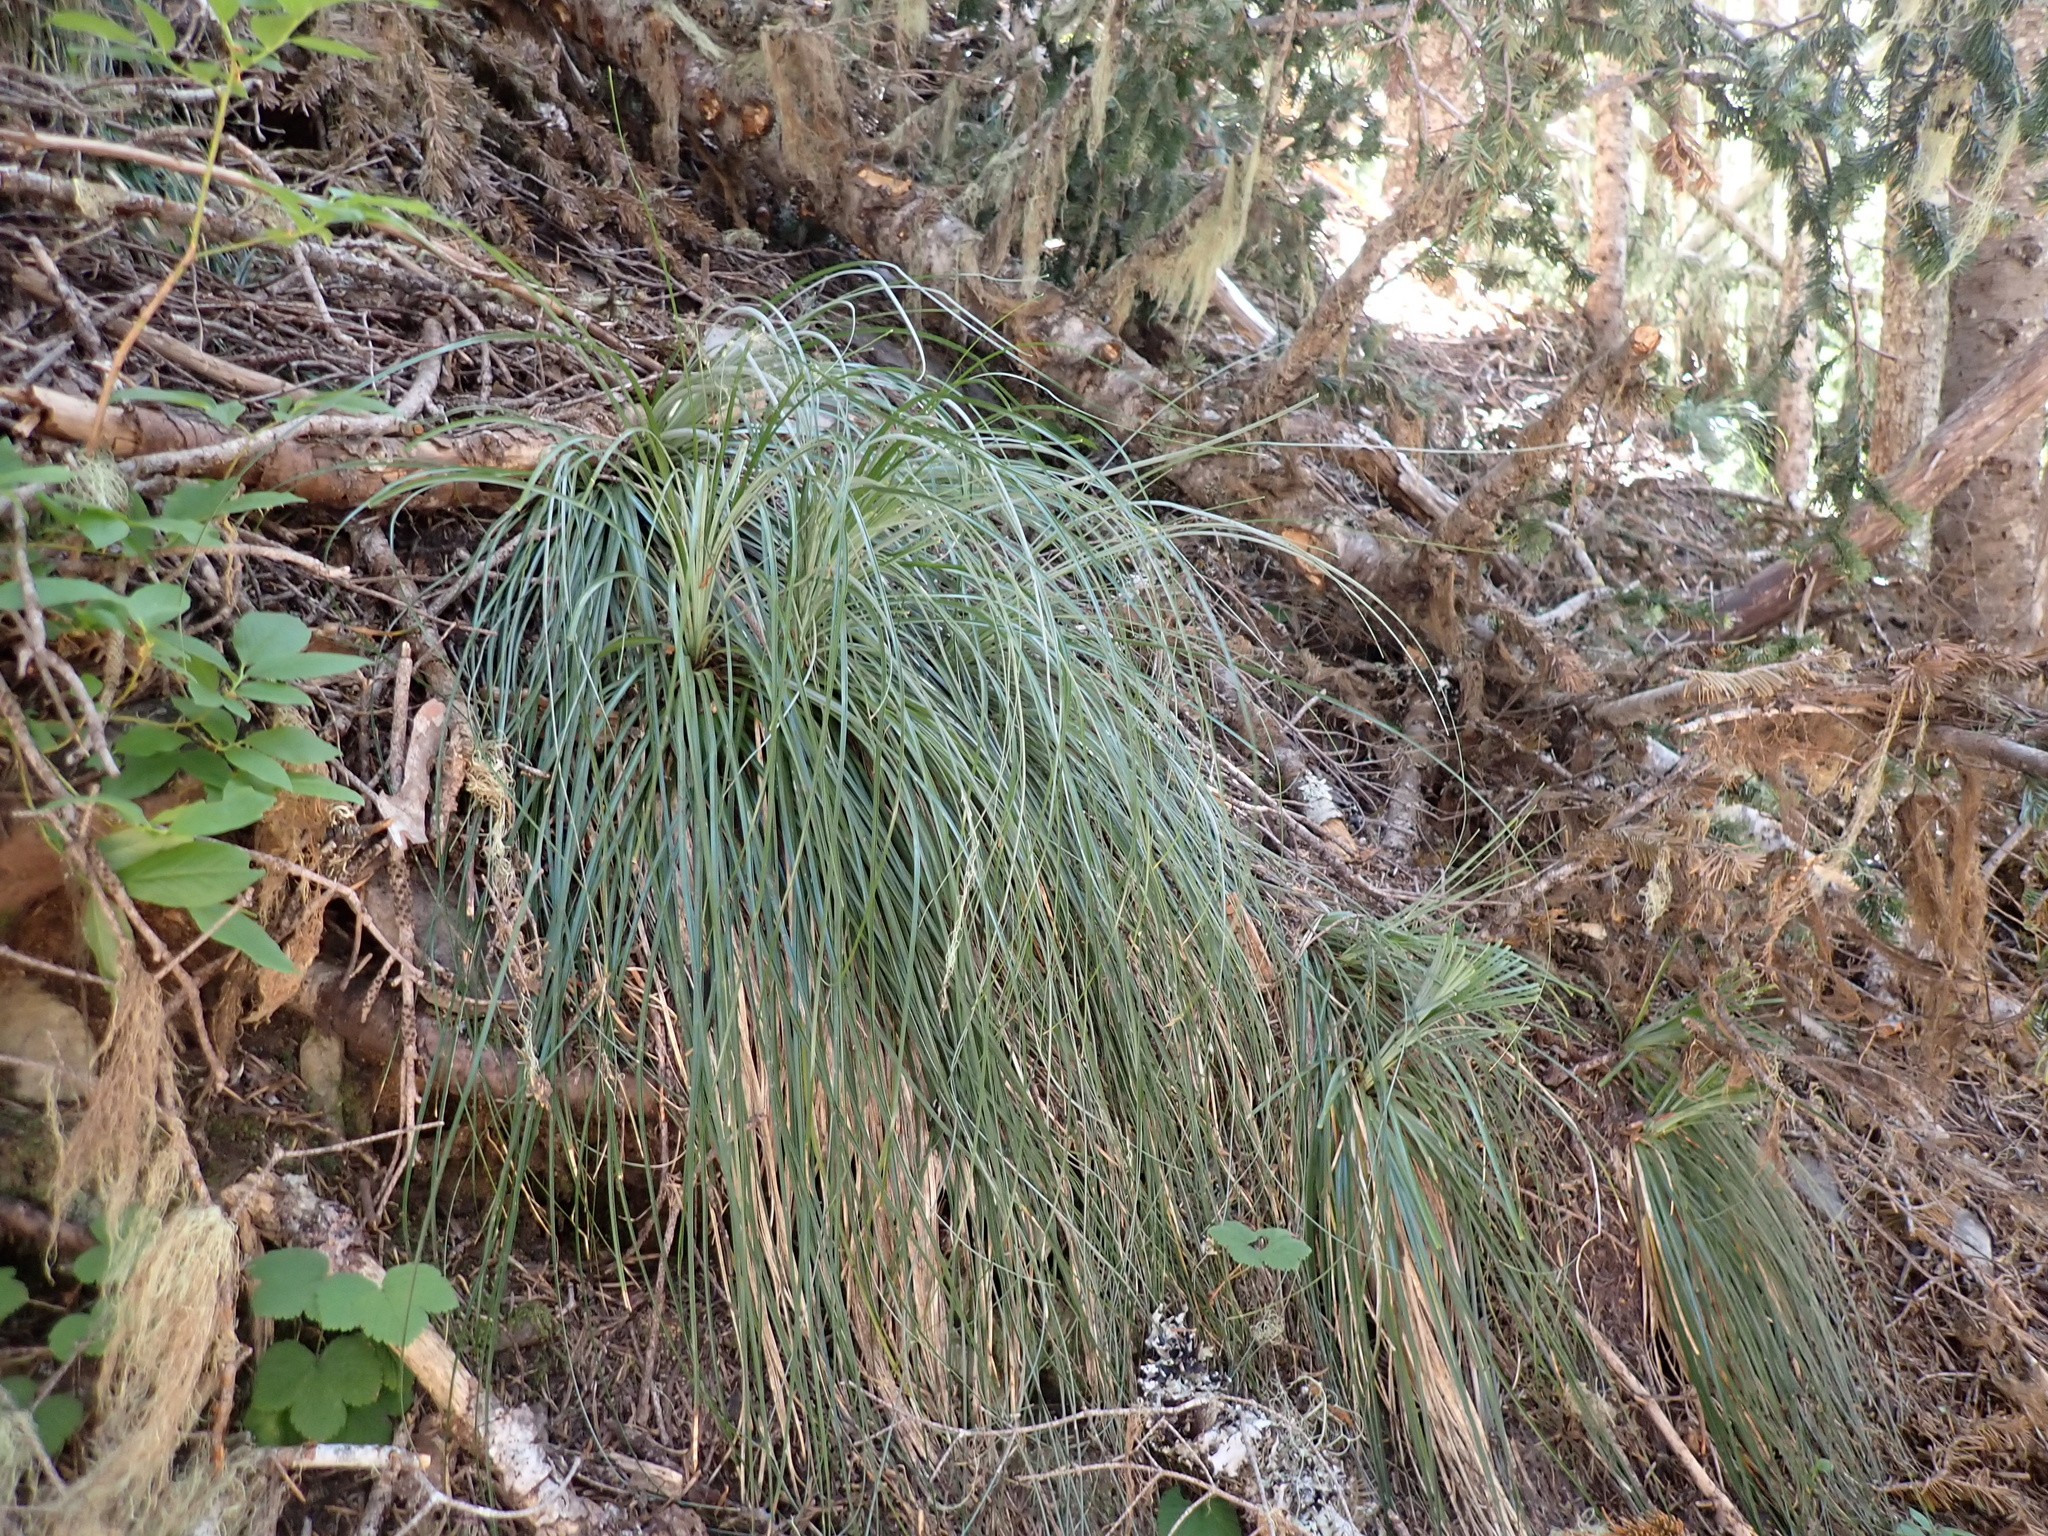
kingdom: Plantae
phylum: Tracheophyta
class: Liliopsida
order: Liliales
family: Melanthiaceae
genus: Xerophyllum
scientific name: Xerophyllum tenax
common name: Bear-grass
